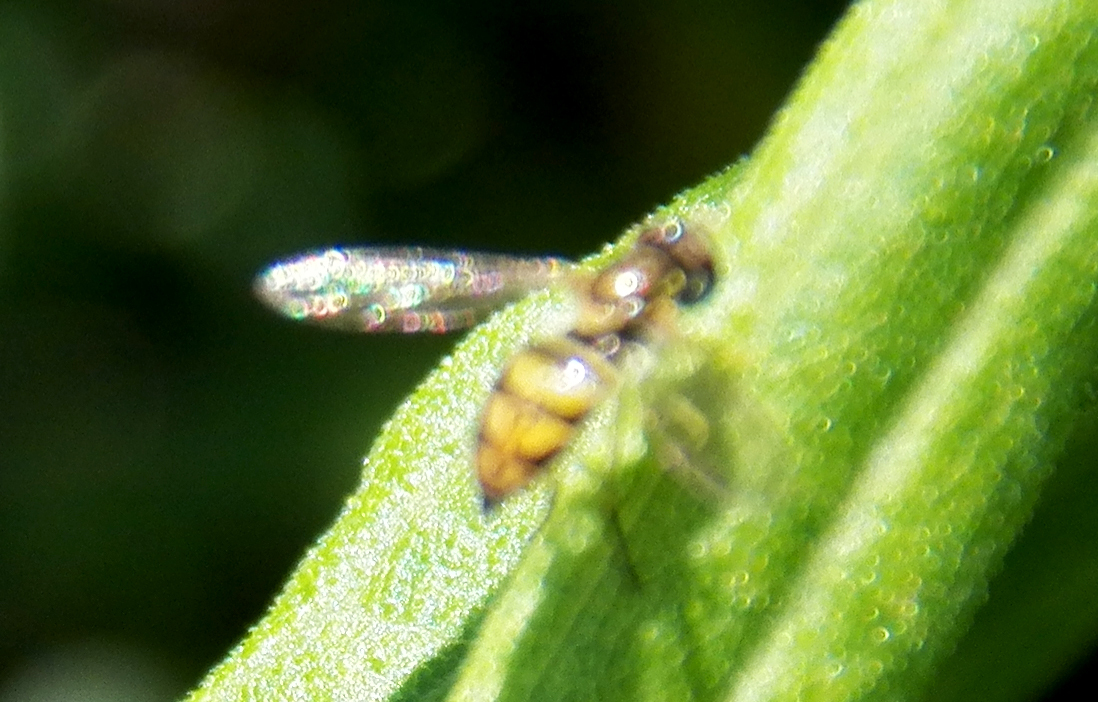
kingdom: Animalia
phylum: Arthropoda
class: Insecta
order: Diptera
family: Syrphidae
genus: Toxomerus
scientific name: Toxomerus marginatus
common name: Syrphid fly
